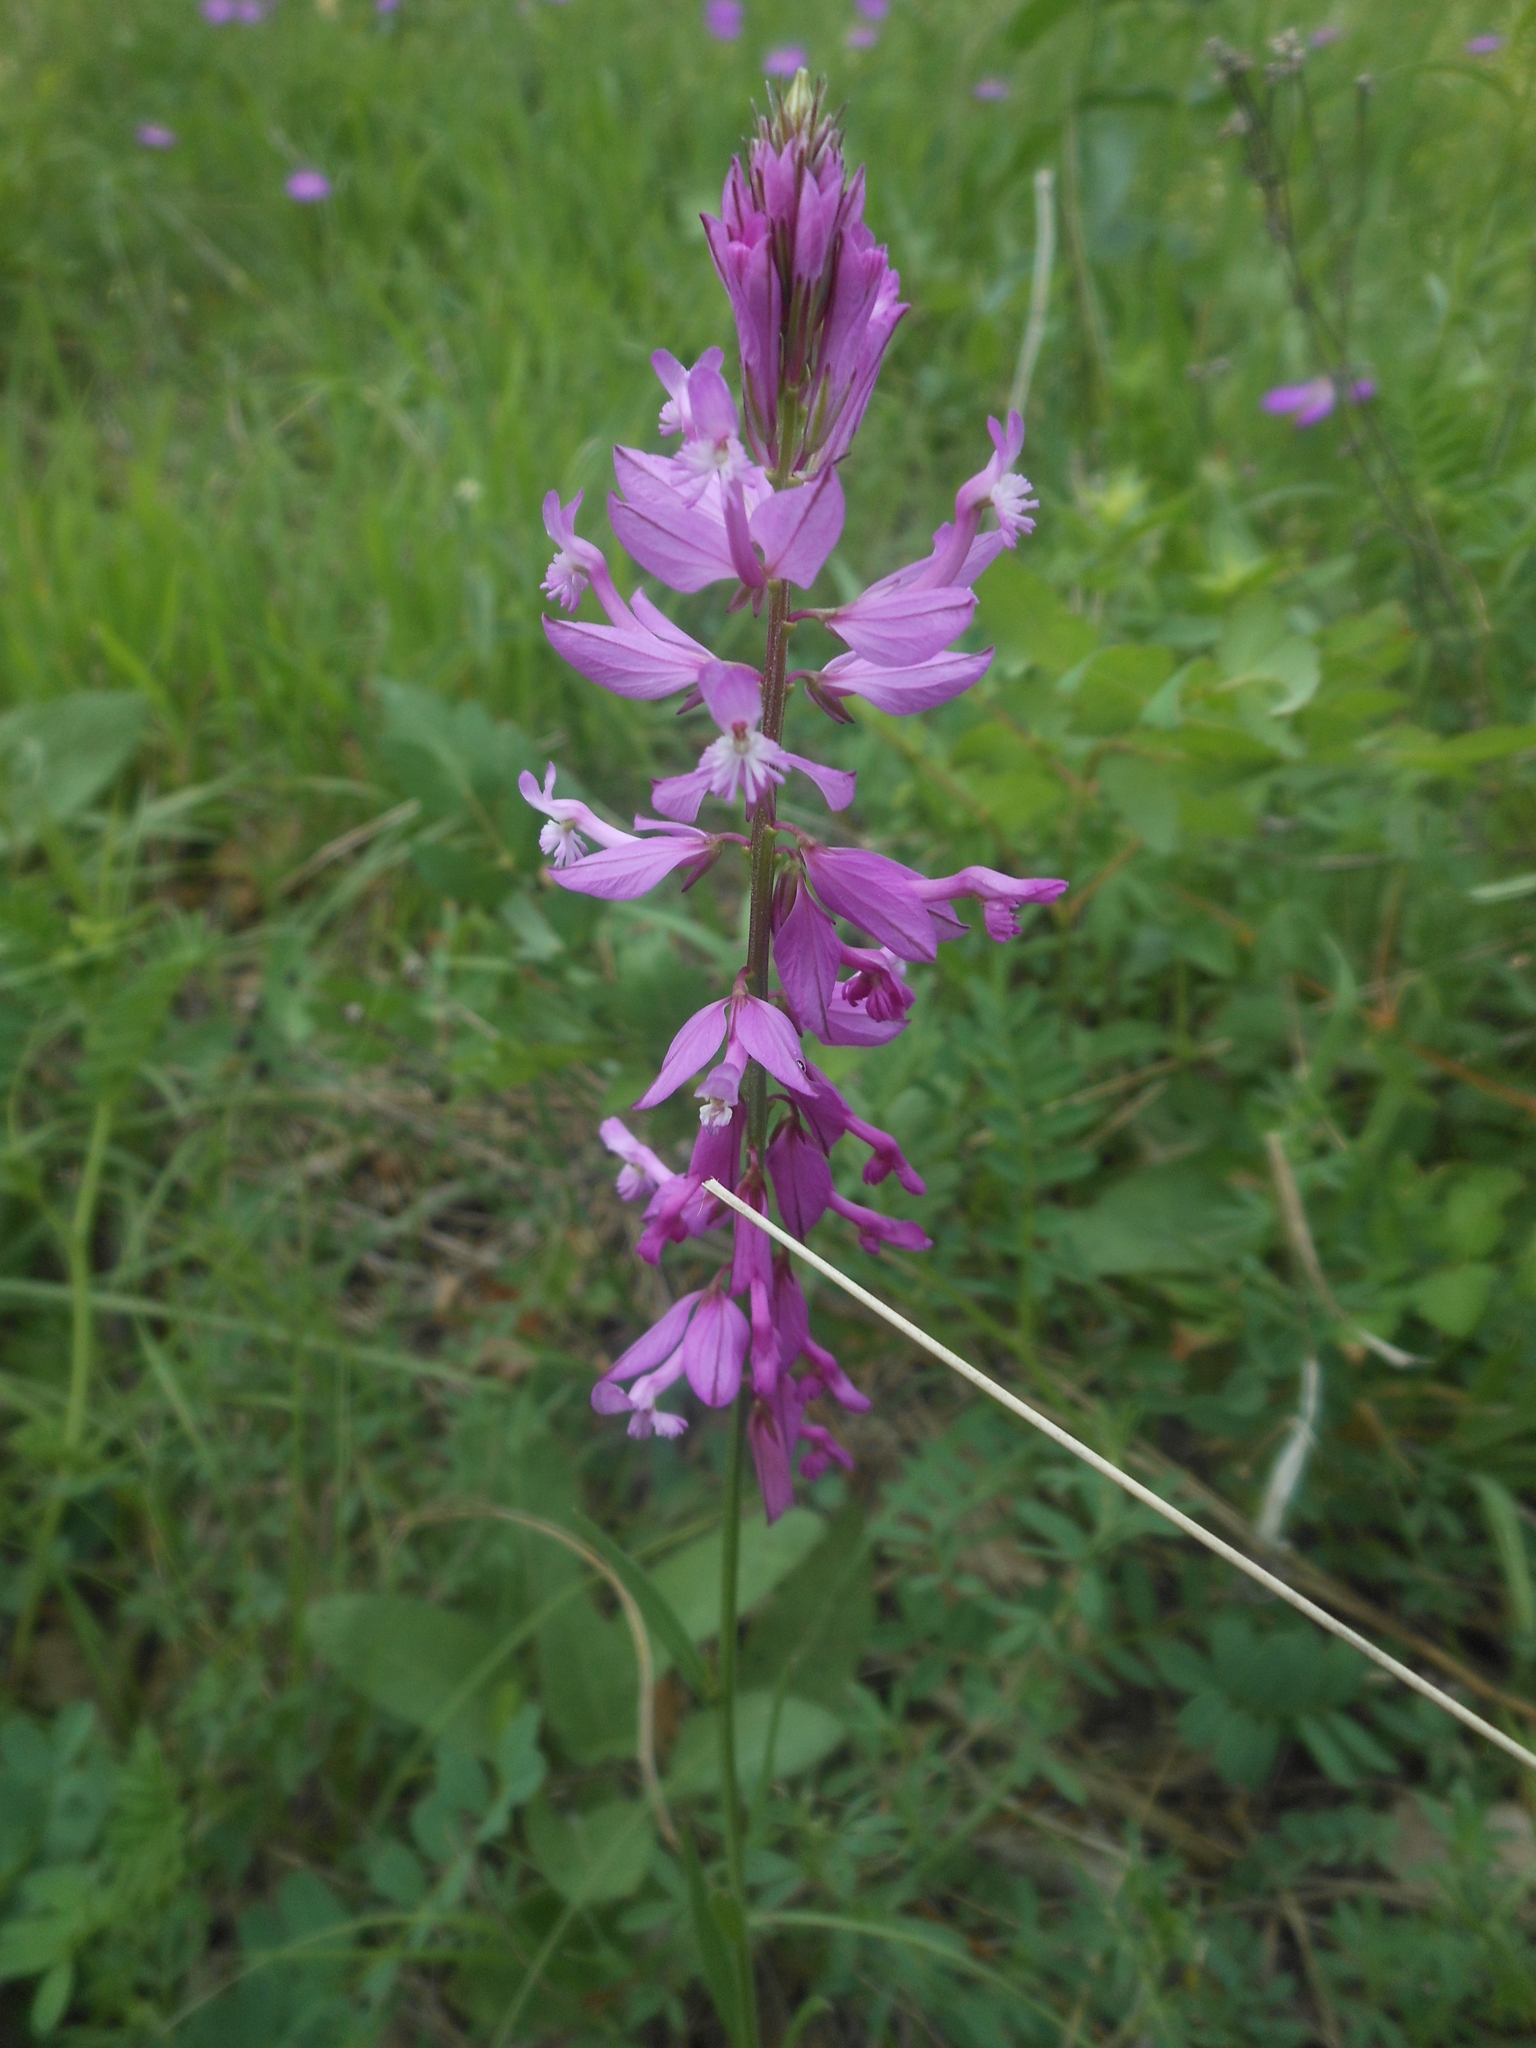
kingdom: Plantae
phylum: Tracheophyta
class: Magnoliopsida
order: Fabales
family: Polygalaceae
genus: Polygala
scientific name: Polygala major
